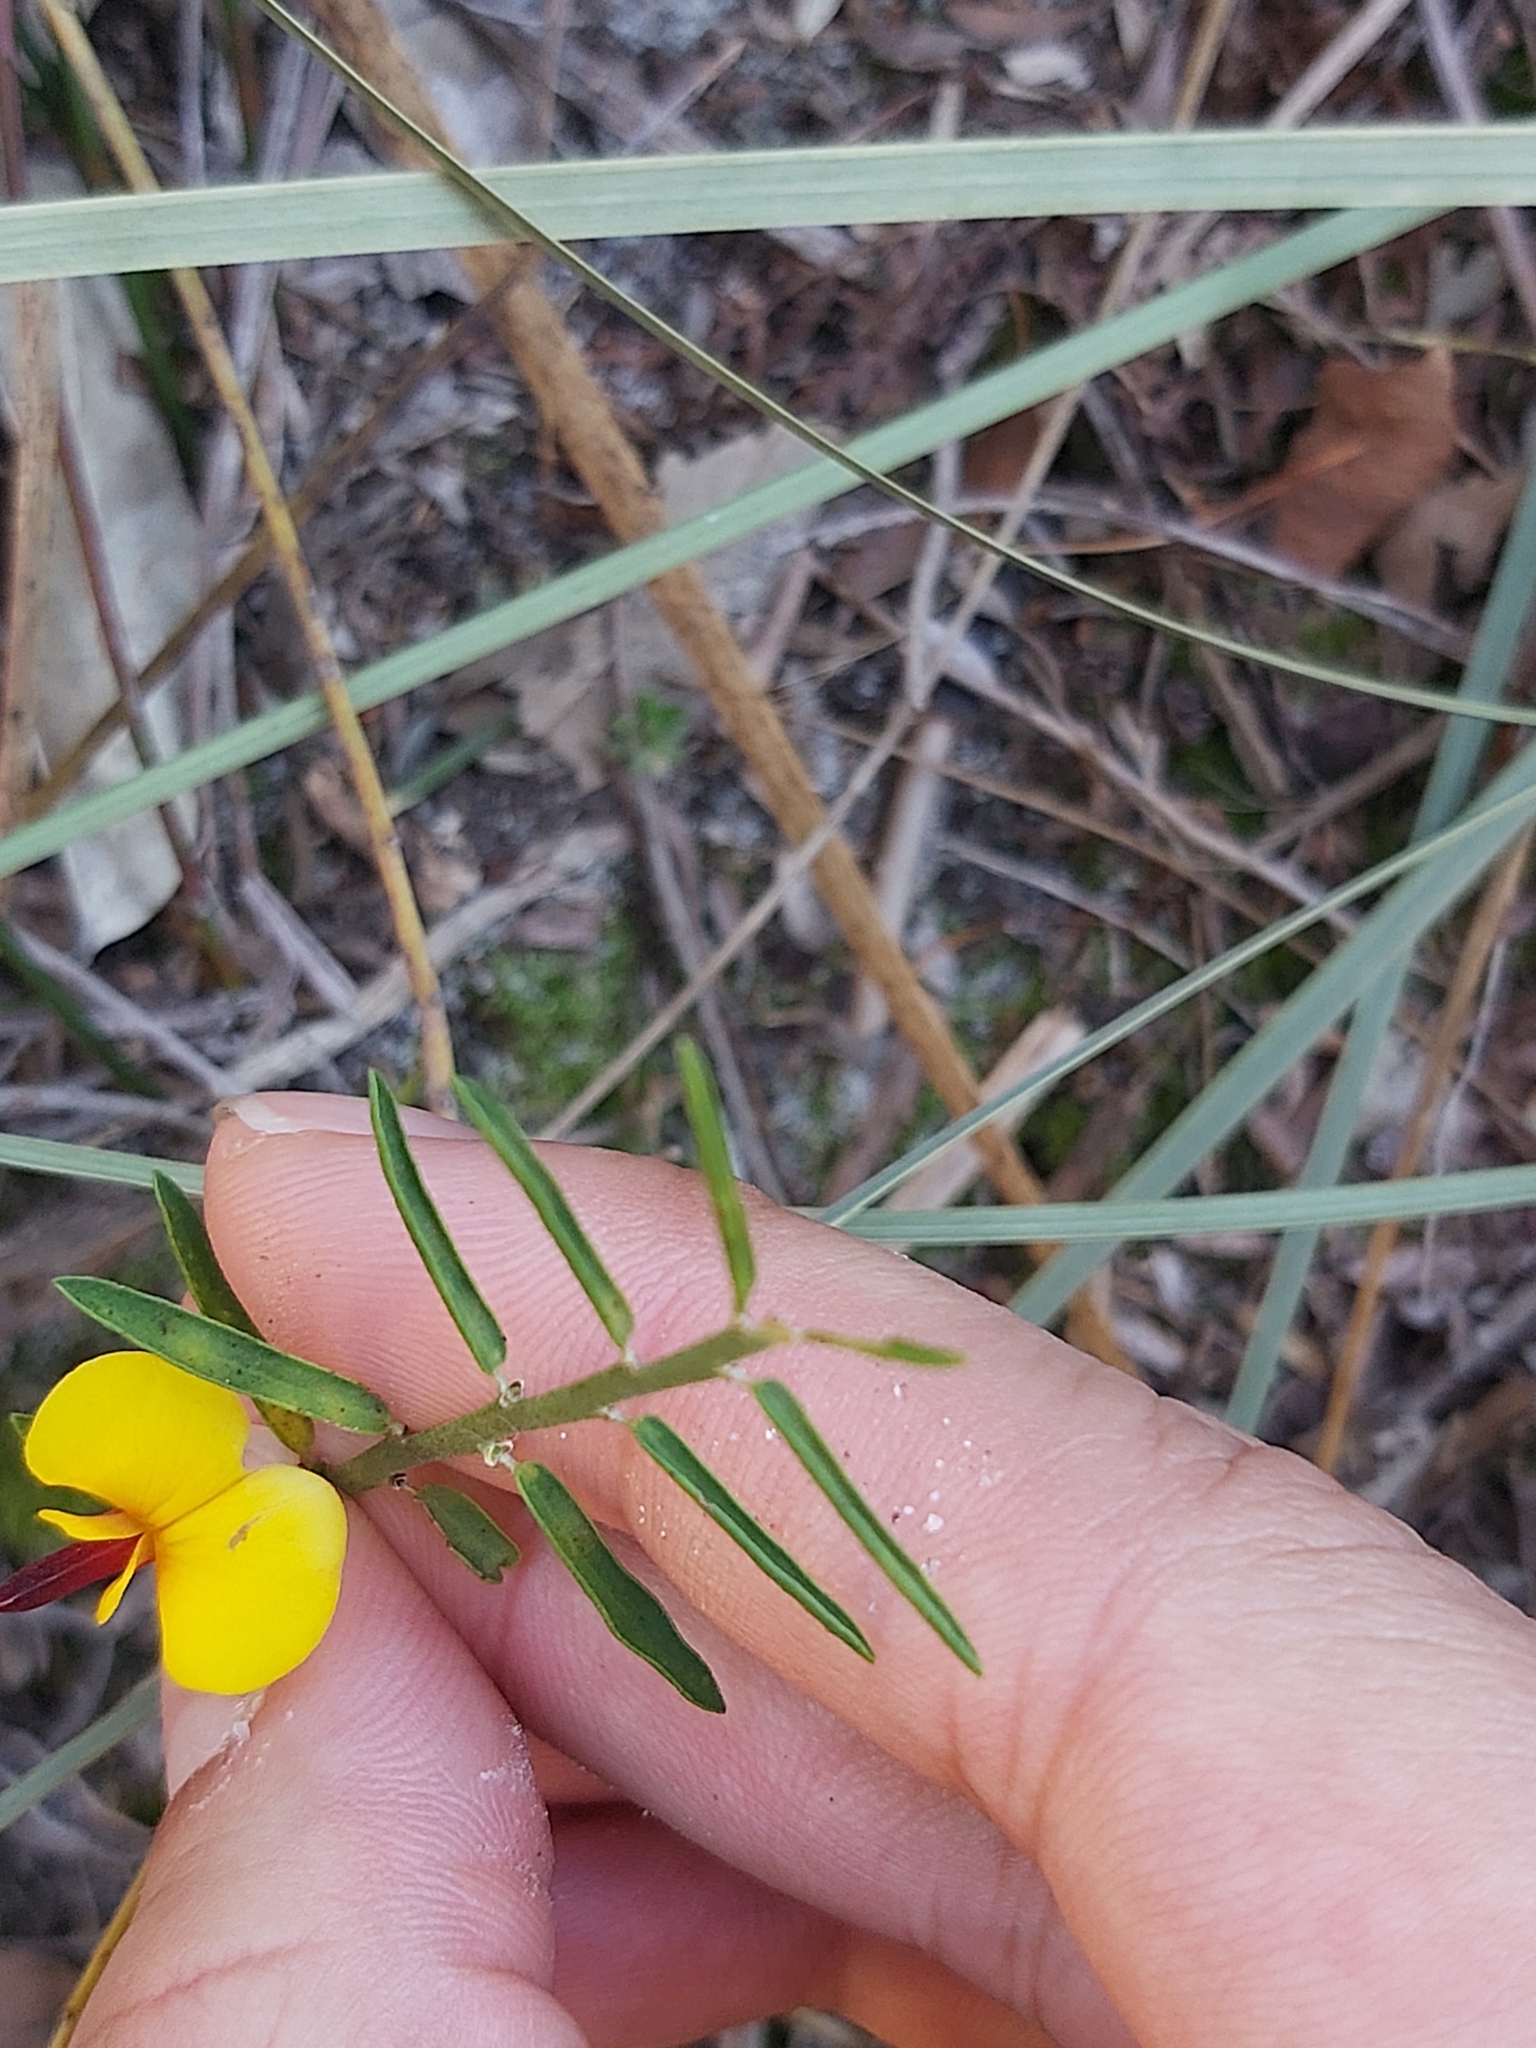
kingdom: Plantae
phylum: Tracheophyta
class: Magnoliopsida
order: Fabales
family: Fabaceae
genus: Bossiaea
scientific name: Bossiaea heterophylla
